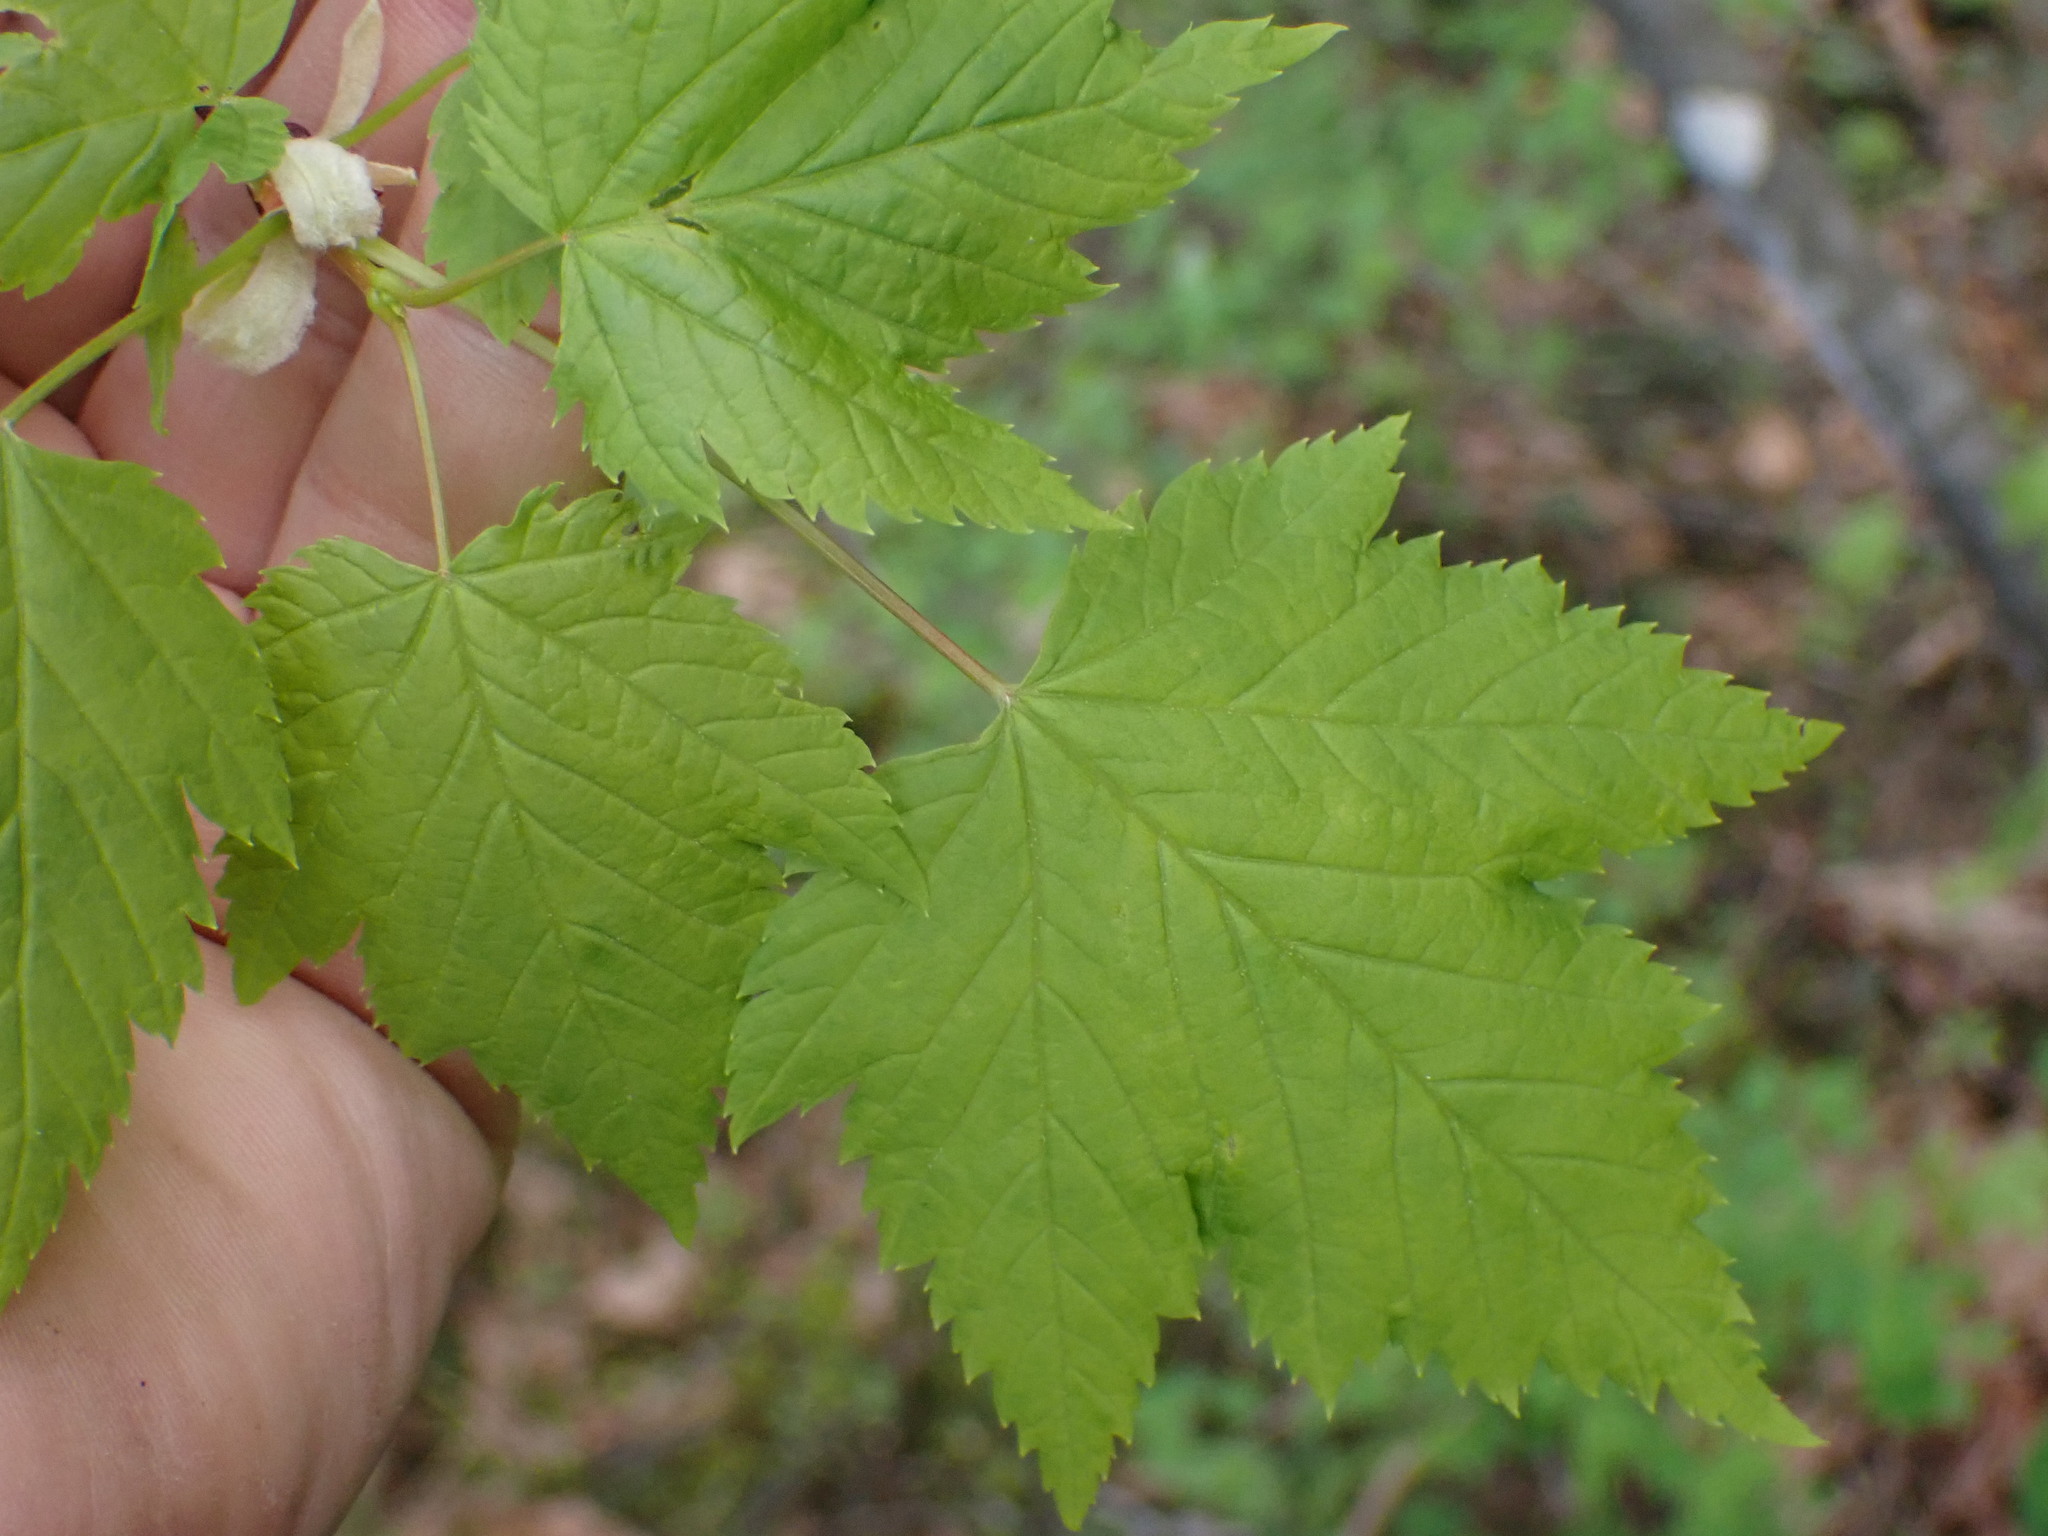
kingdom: Plantae
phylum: Tracheophyta
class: Magnoliopsida
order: Sapindales
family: Sapindaceae
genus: Acer
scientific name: Acer glabrum
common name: Rocky mountain maple
